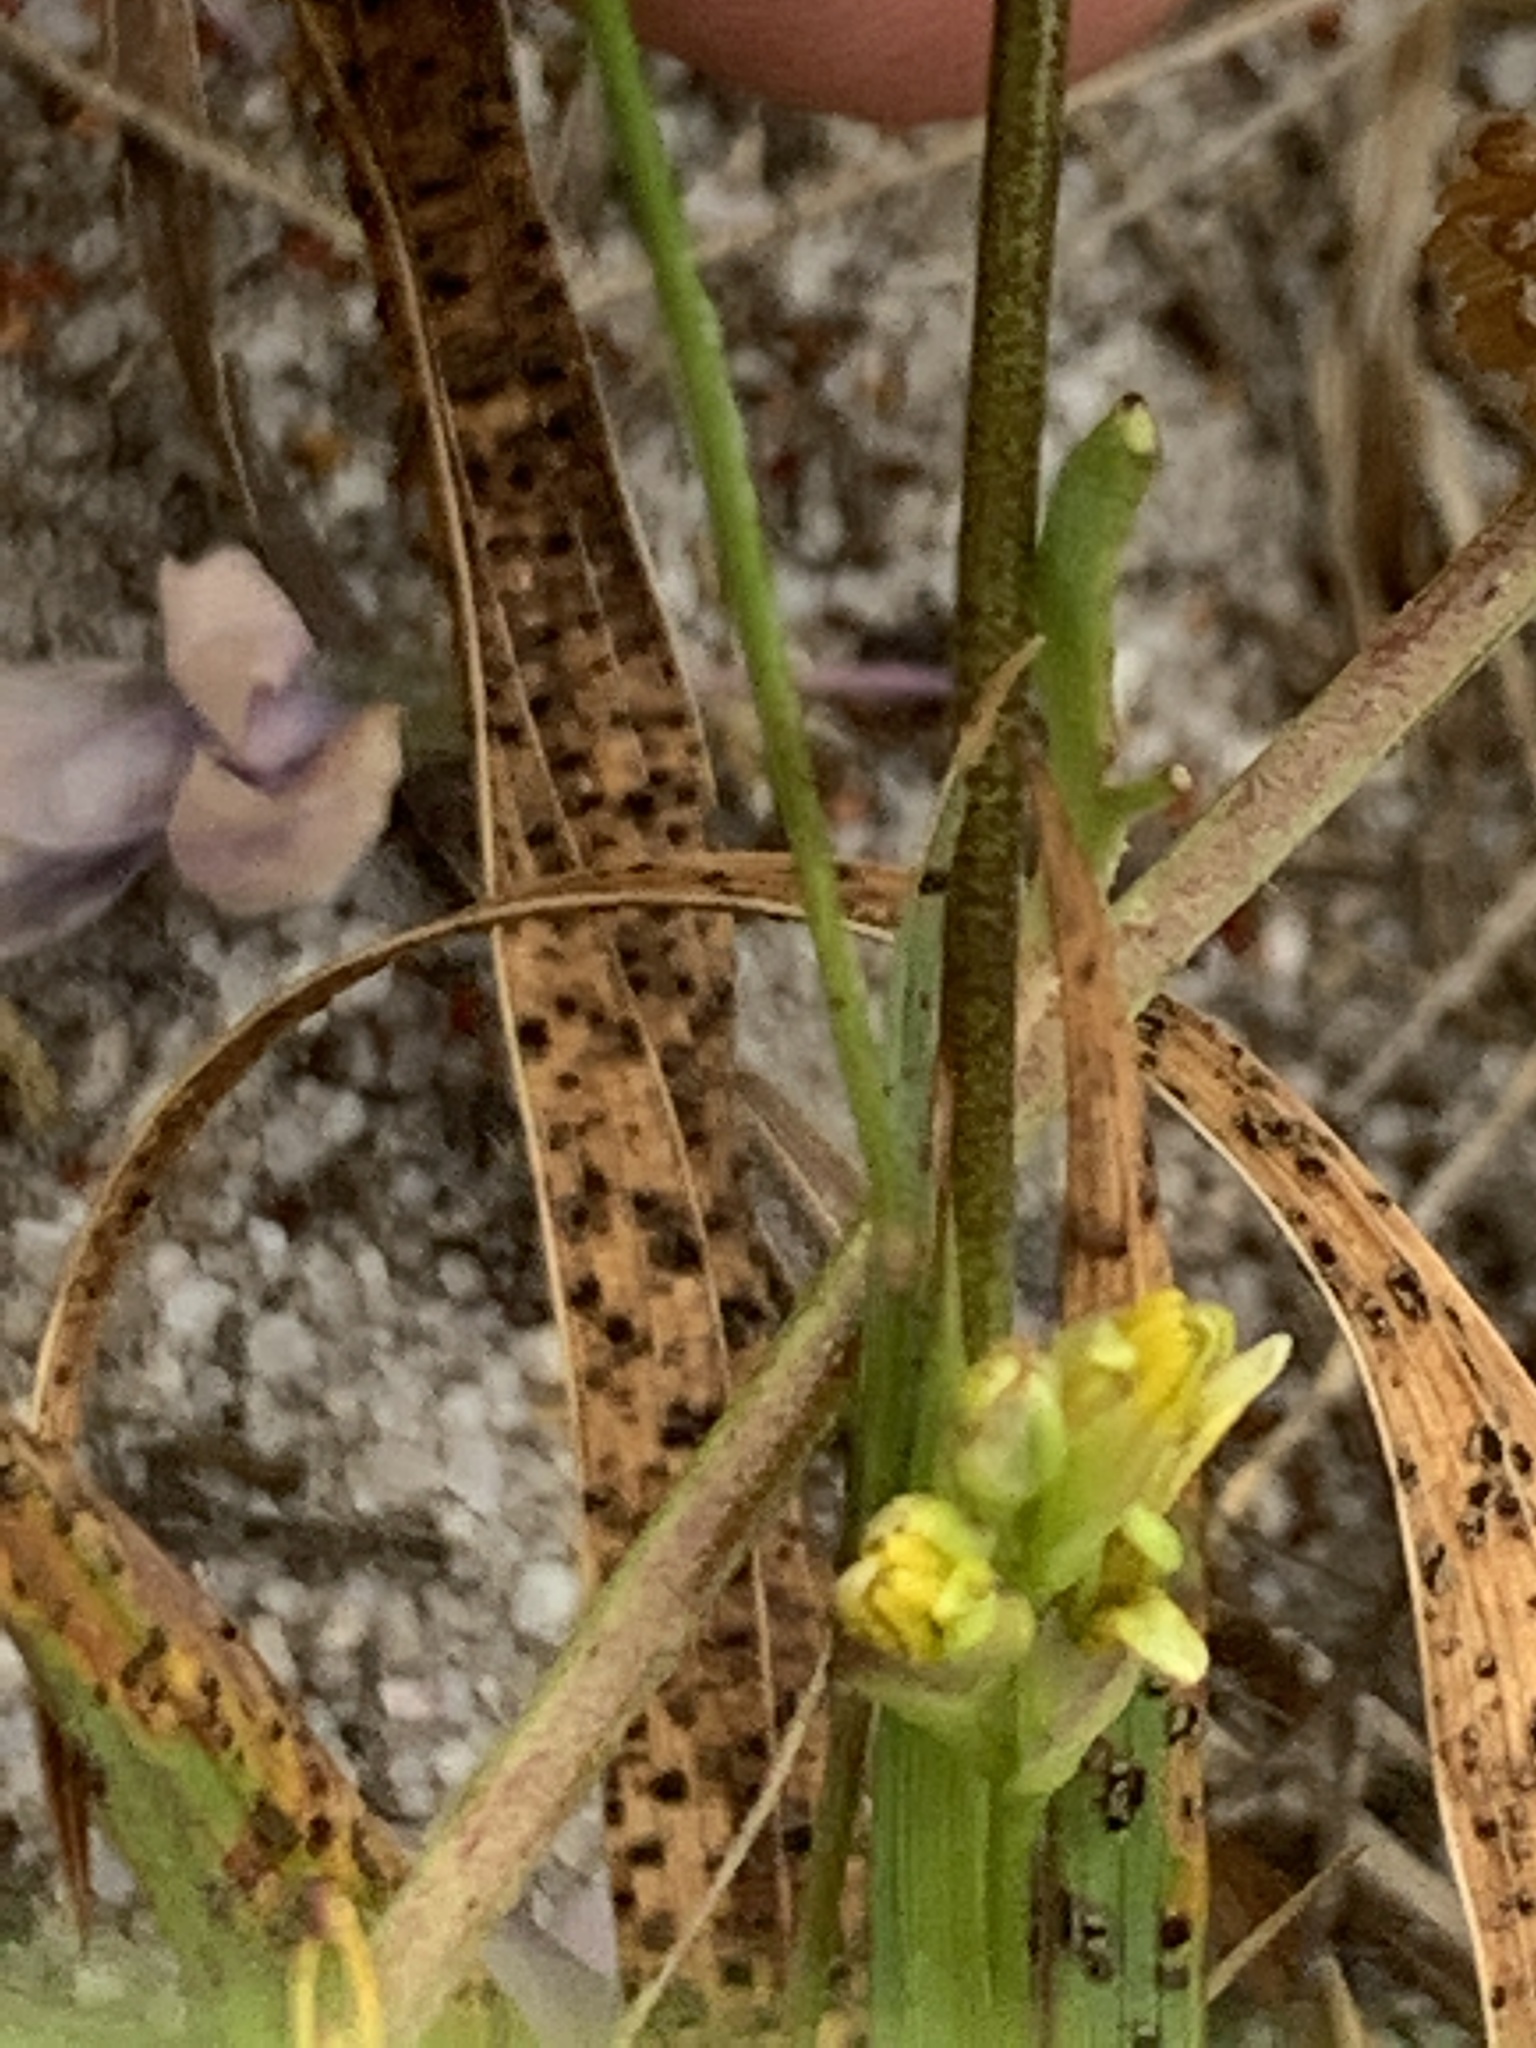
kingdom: Plantae
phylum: Tracheophyta
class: Liliopsida
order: Asparagales
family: Iridaceae
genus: Ixia
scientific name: Ixia monadelpha
